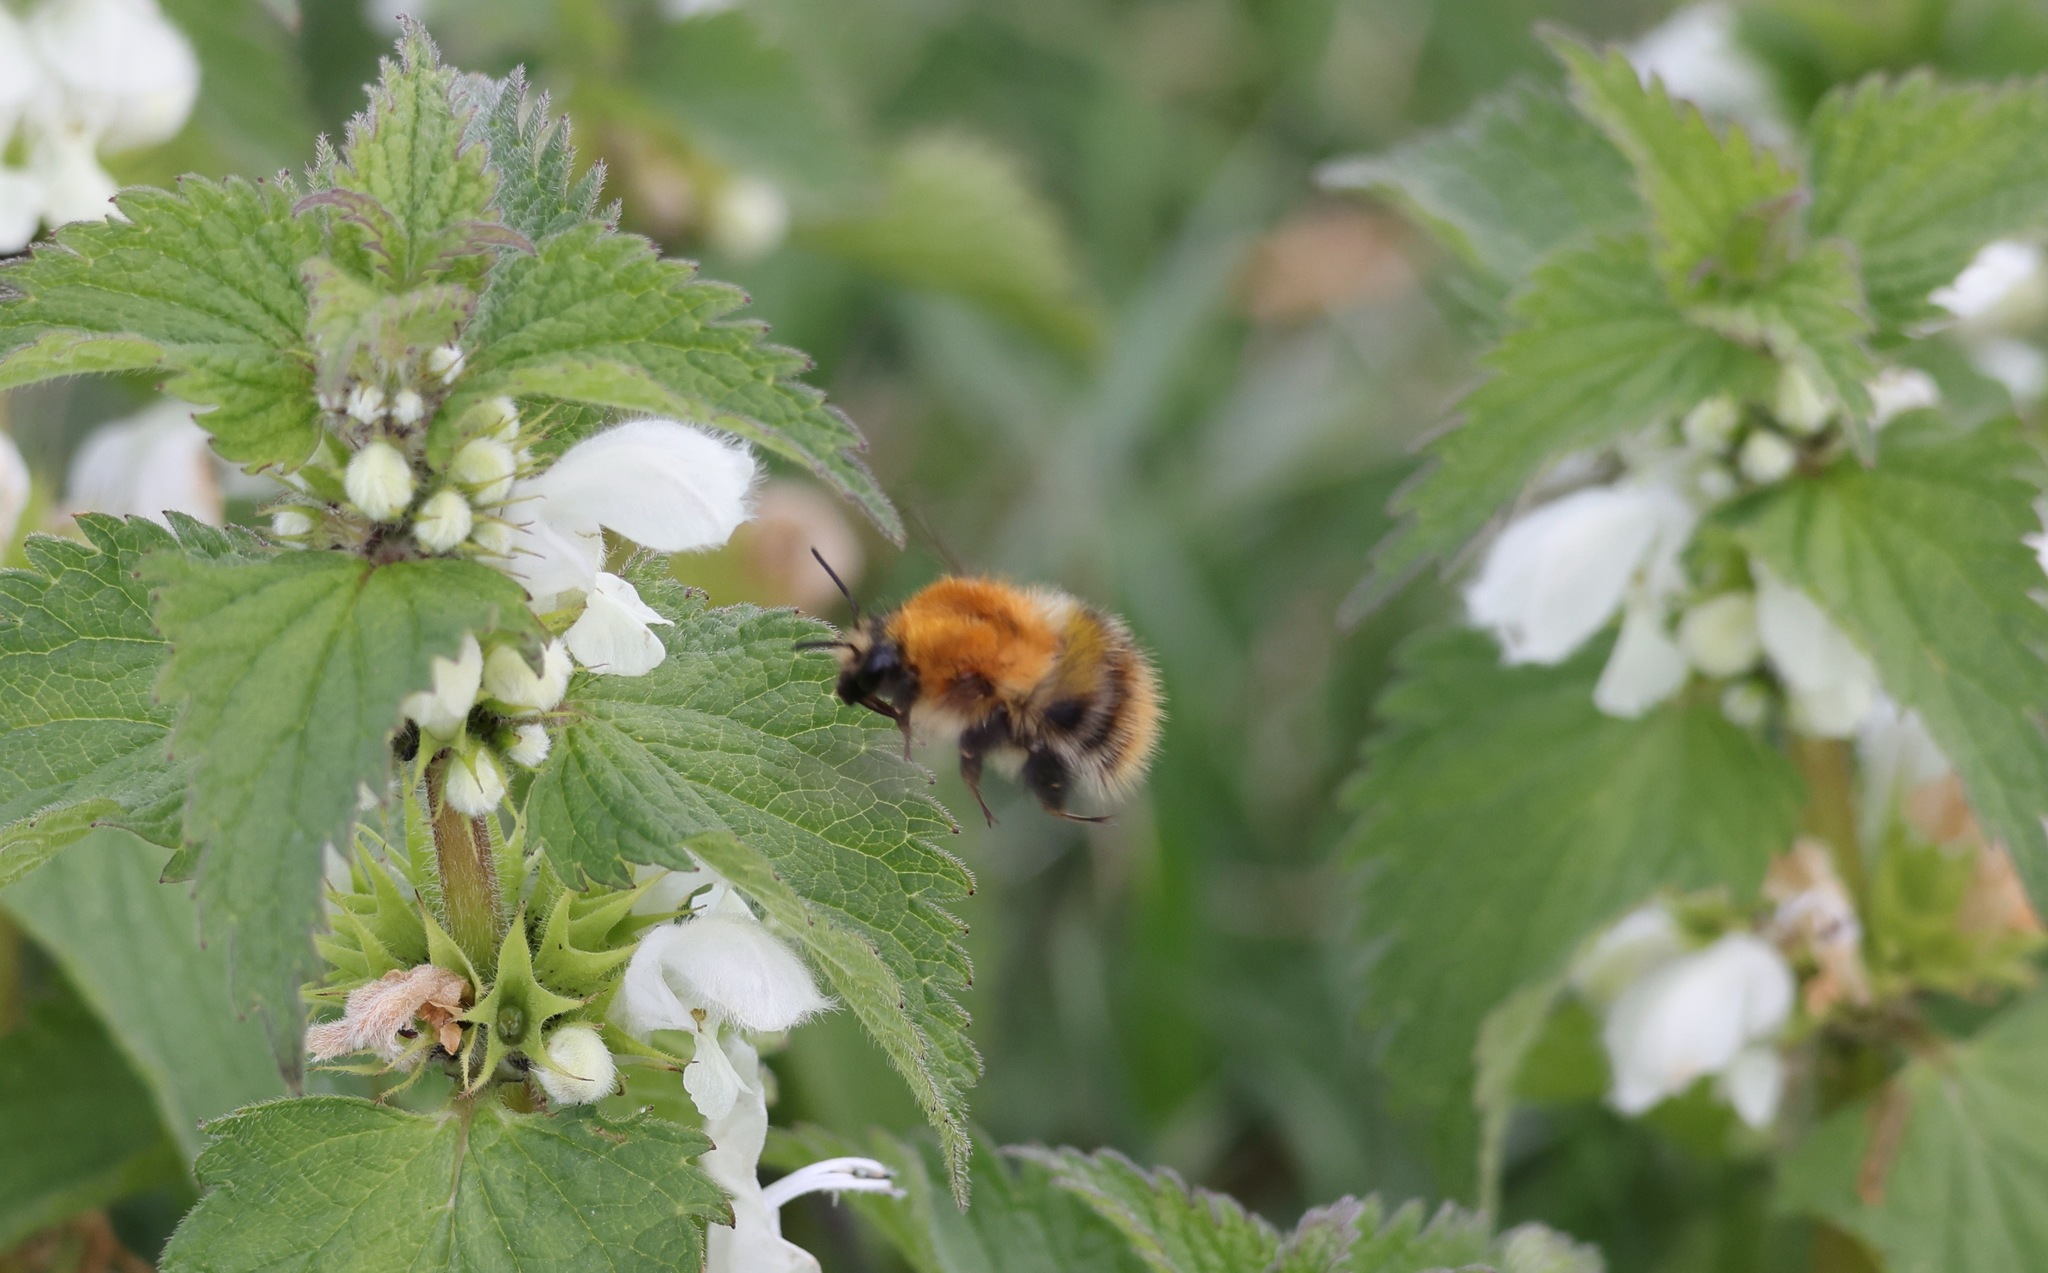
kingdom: Animalia
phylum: Arthropoda
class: Insecta
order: Hymenoptera
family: Apidae
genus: Bombus
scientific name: Bombus pascuorum
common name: Common carder bee
